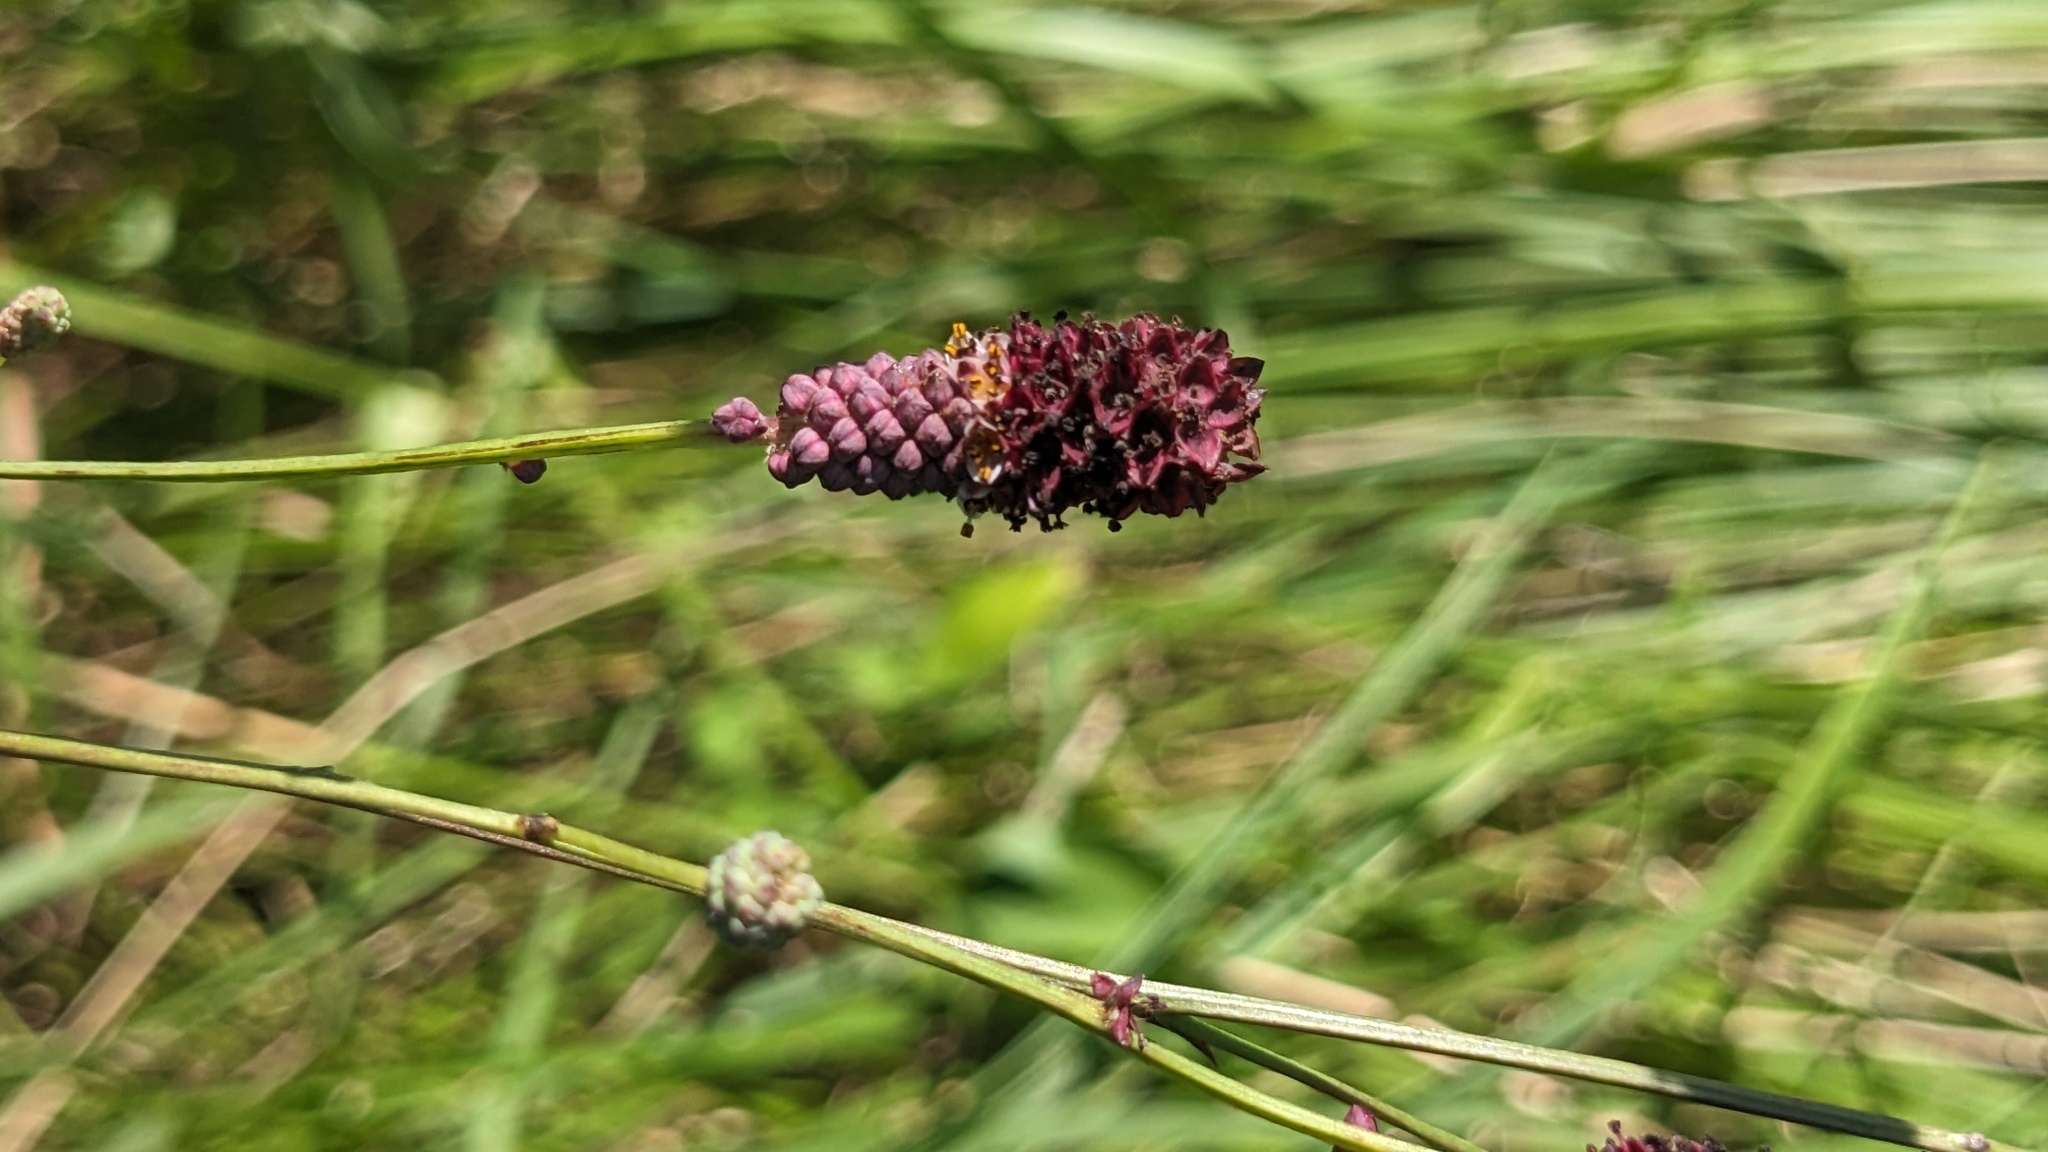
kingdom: Plantae
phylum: Tracheophyta
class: Magnoliopsida
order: Rosales
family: Rosaceae
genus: Poterium
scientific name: Poterium longifolium
